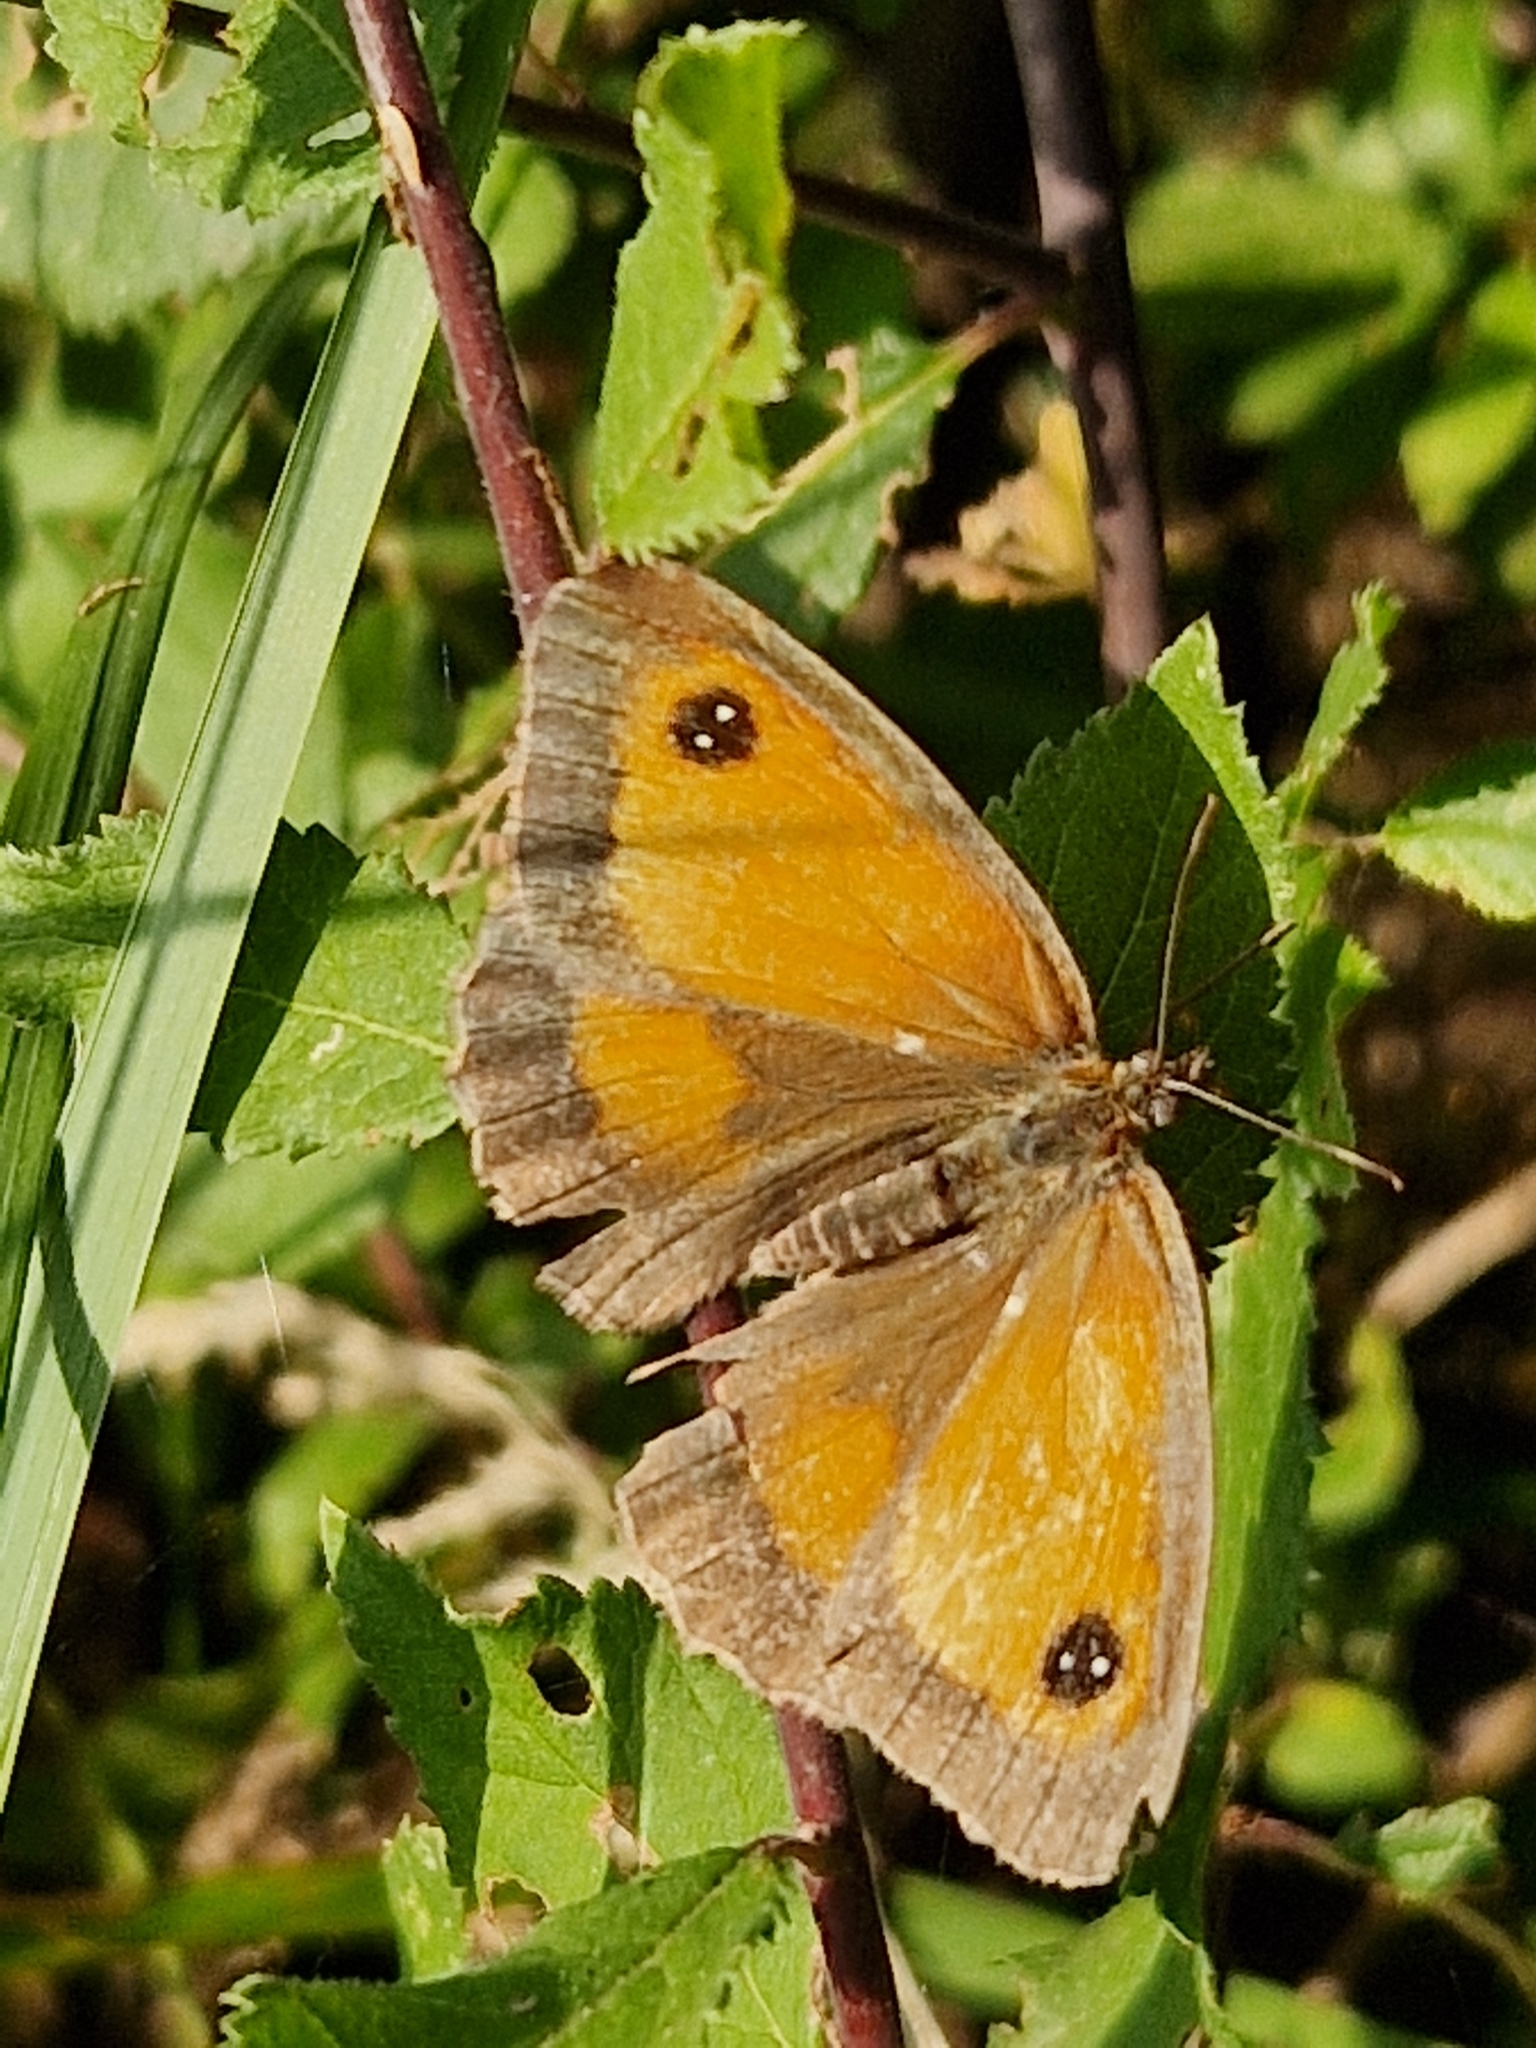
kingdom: Animalia
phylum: Arthropoda
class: Insecta
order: Lepidoptera
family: Nymphalidae
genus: Pyronia
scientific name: Pyronia tithonus
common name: Gatekeeper
